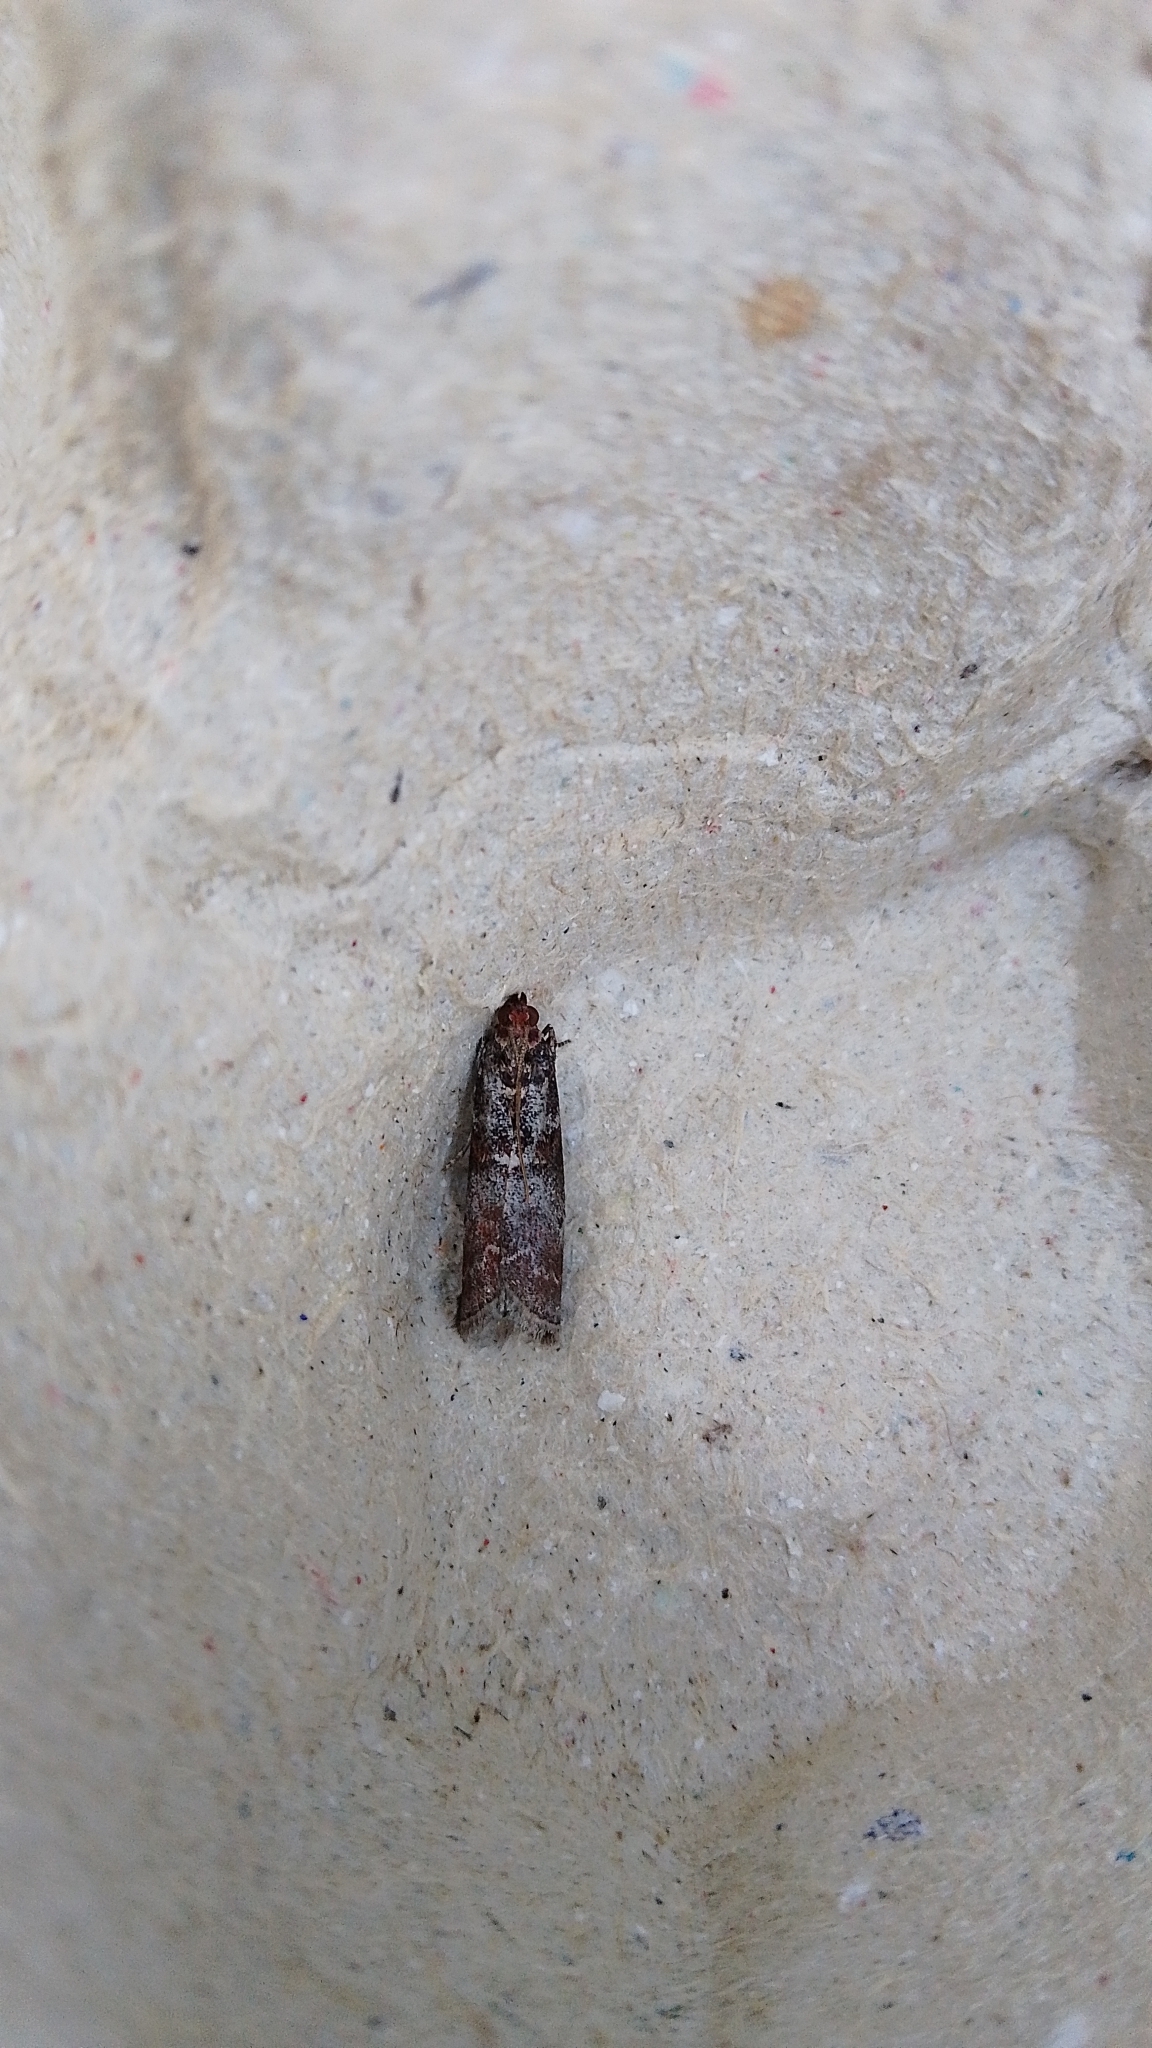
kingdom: Animalia
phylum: Arthropoda
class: Insecta
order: Lepidoptera
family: Pyralidae
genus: Acrobasis
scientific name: Acrobasis advenella
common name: Grey knot-horn
